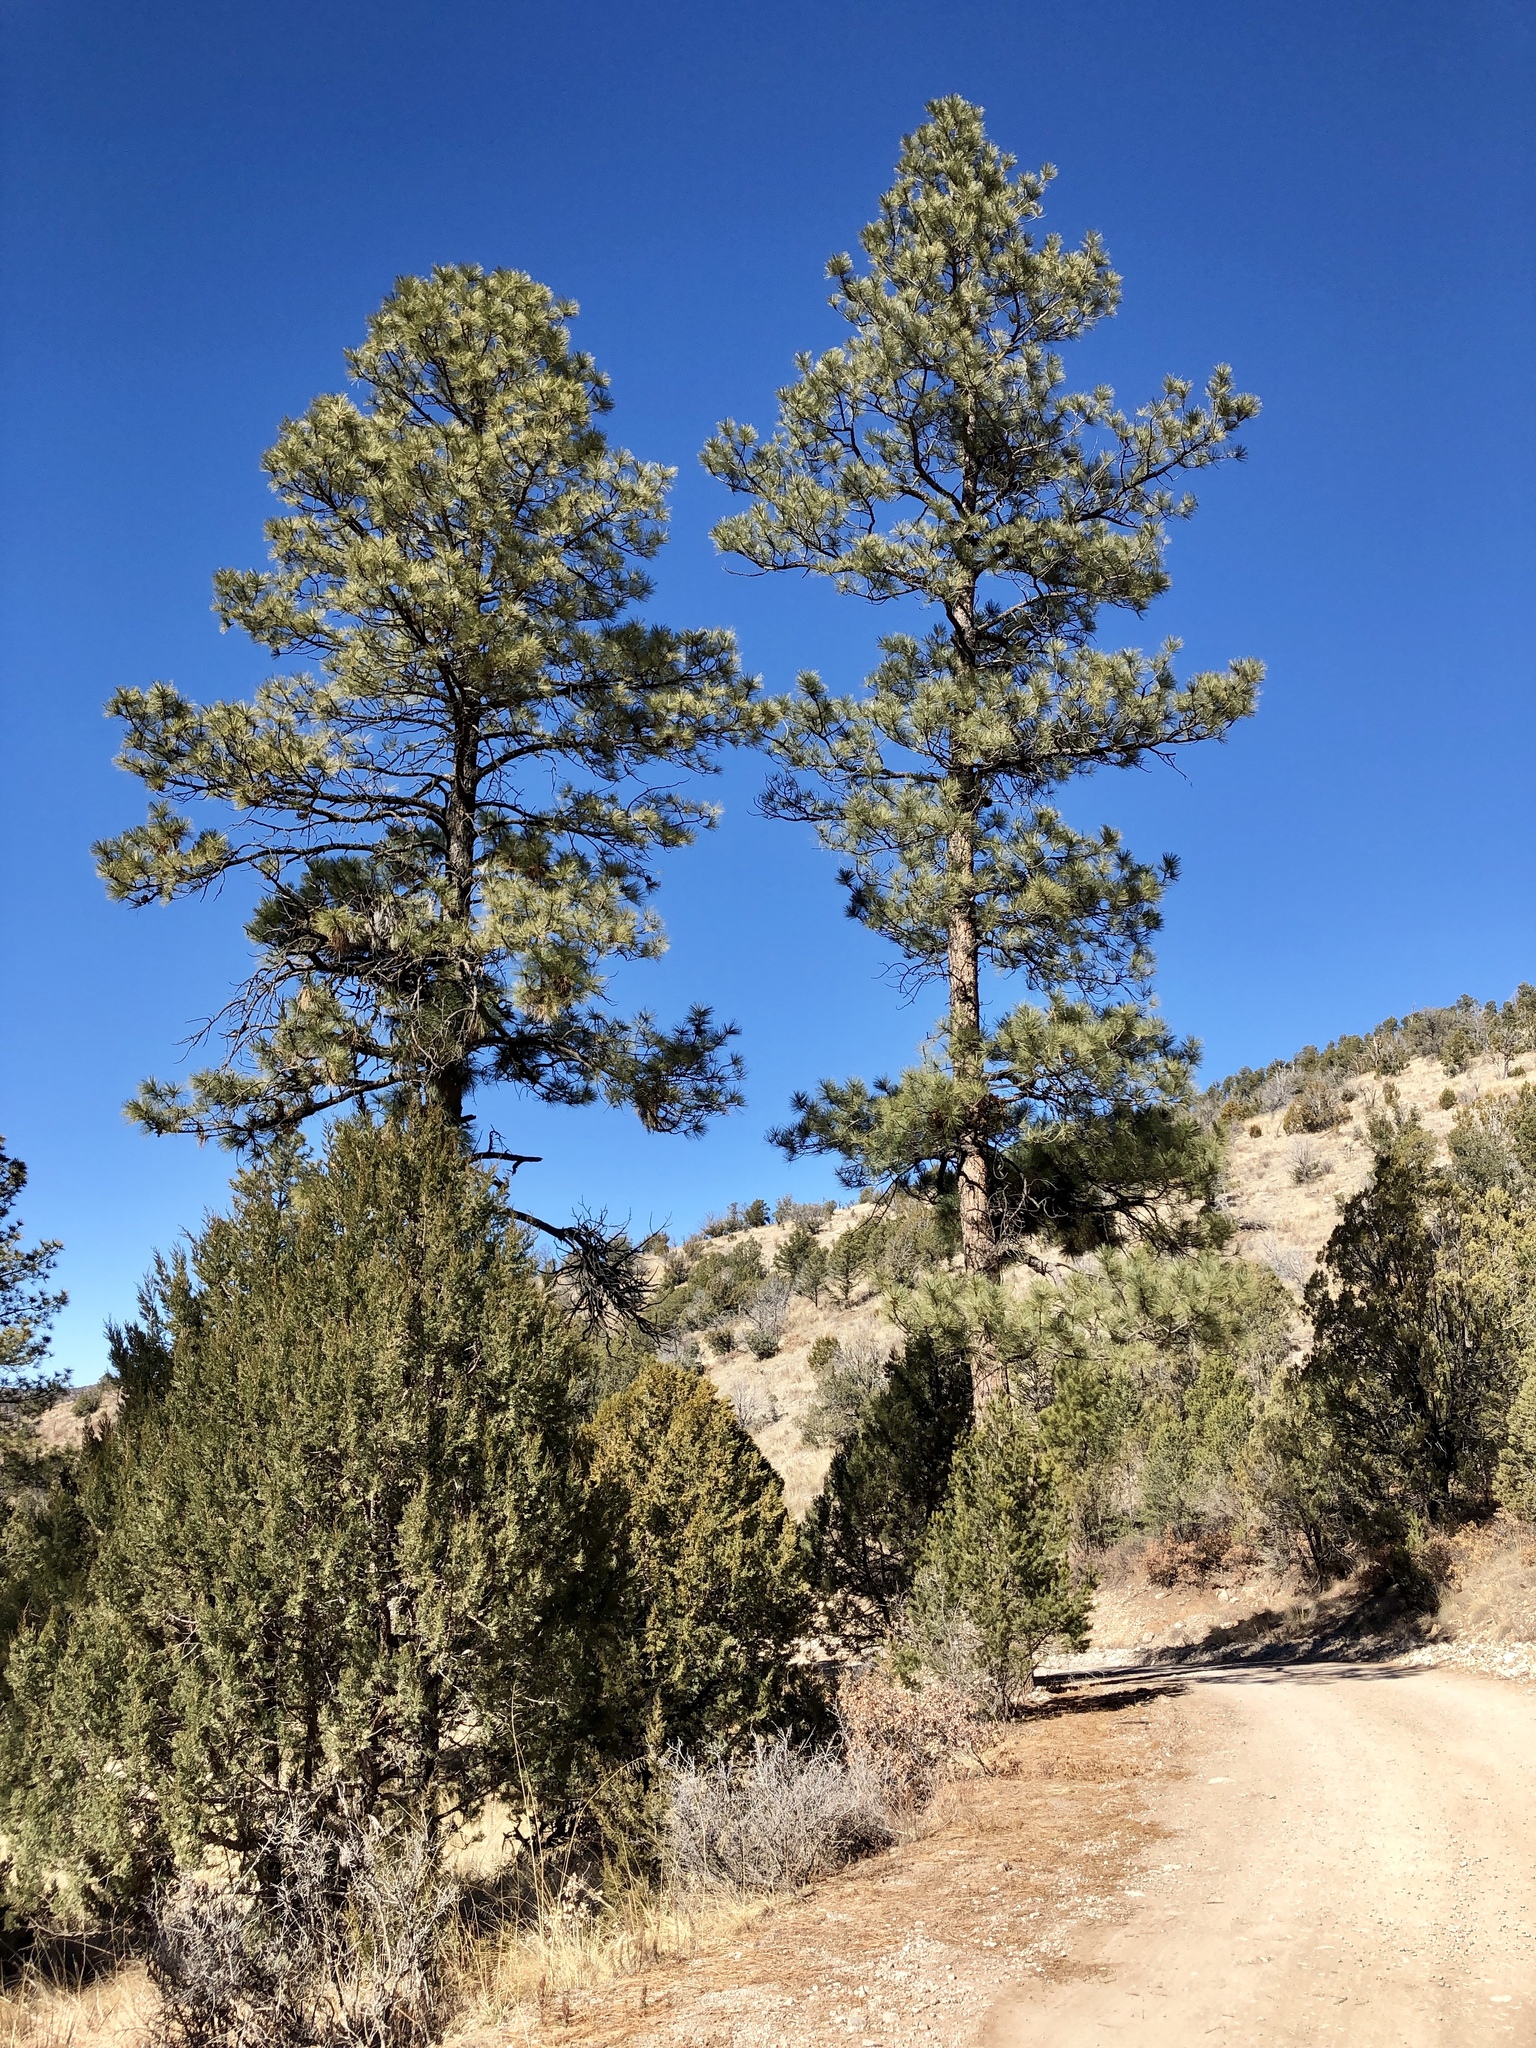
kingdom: Plantae
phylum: Tracheophyta
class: Pinopsida
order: Pinales
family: Pinaceae
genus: Pinus
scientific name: Pinus ponderosa
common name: Western yellow-pine
